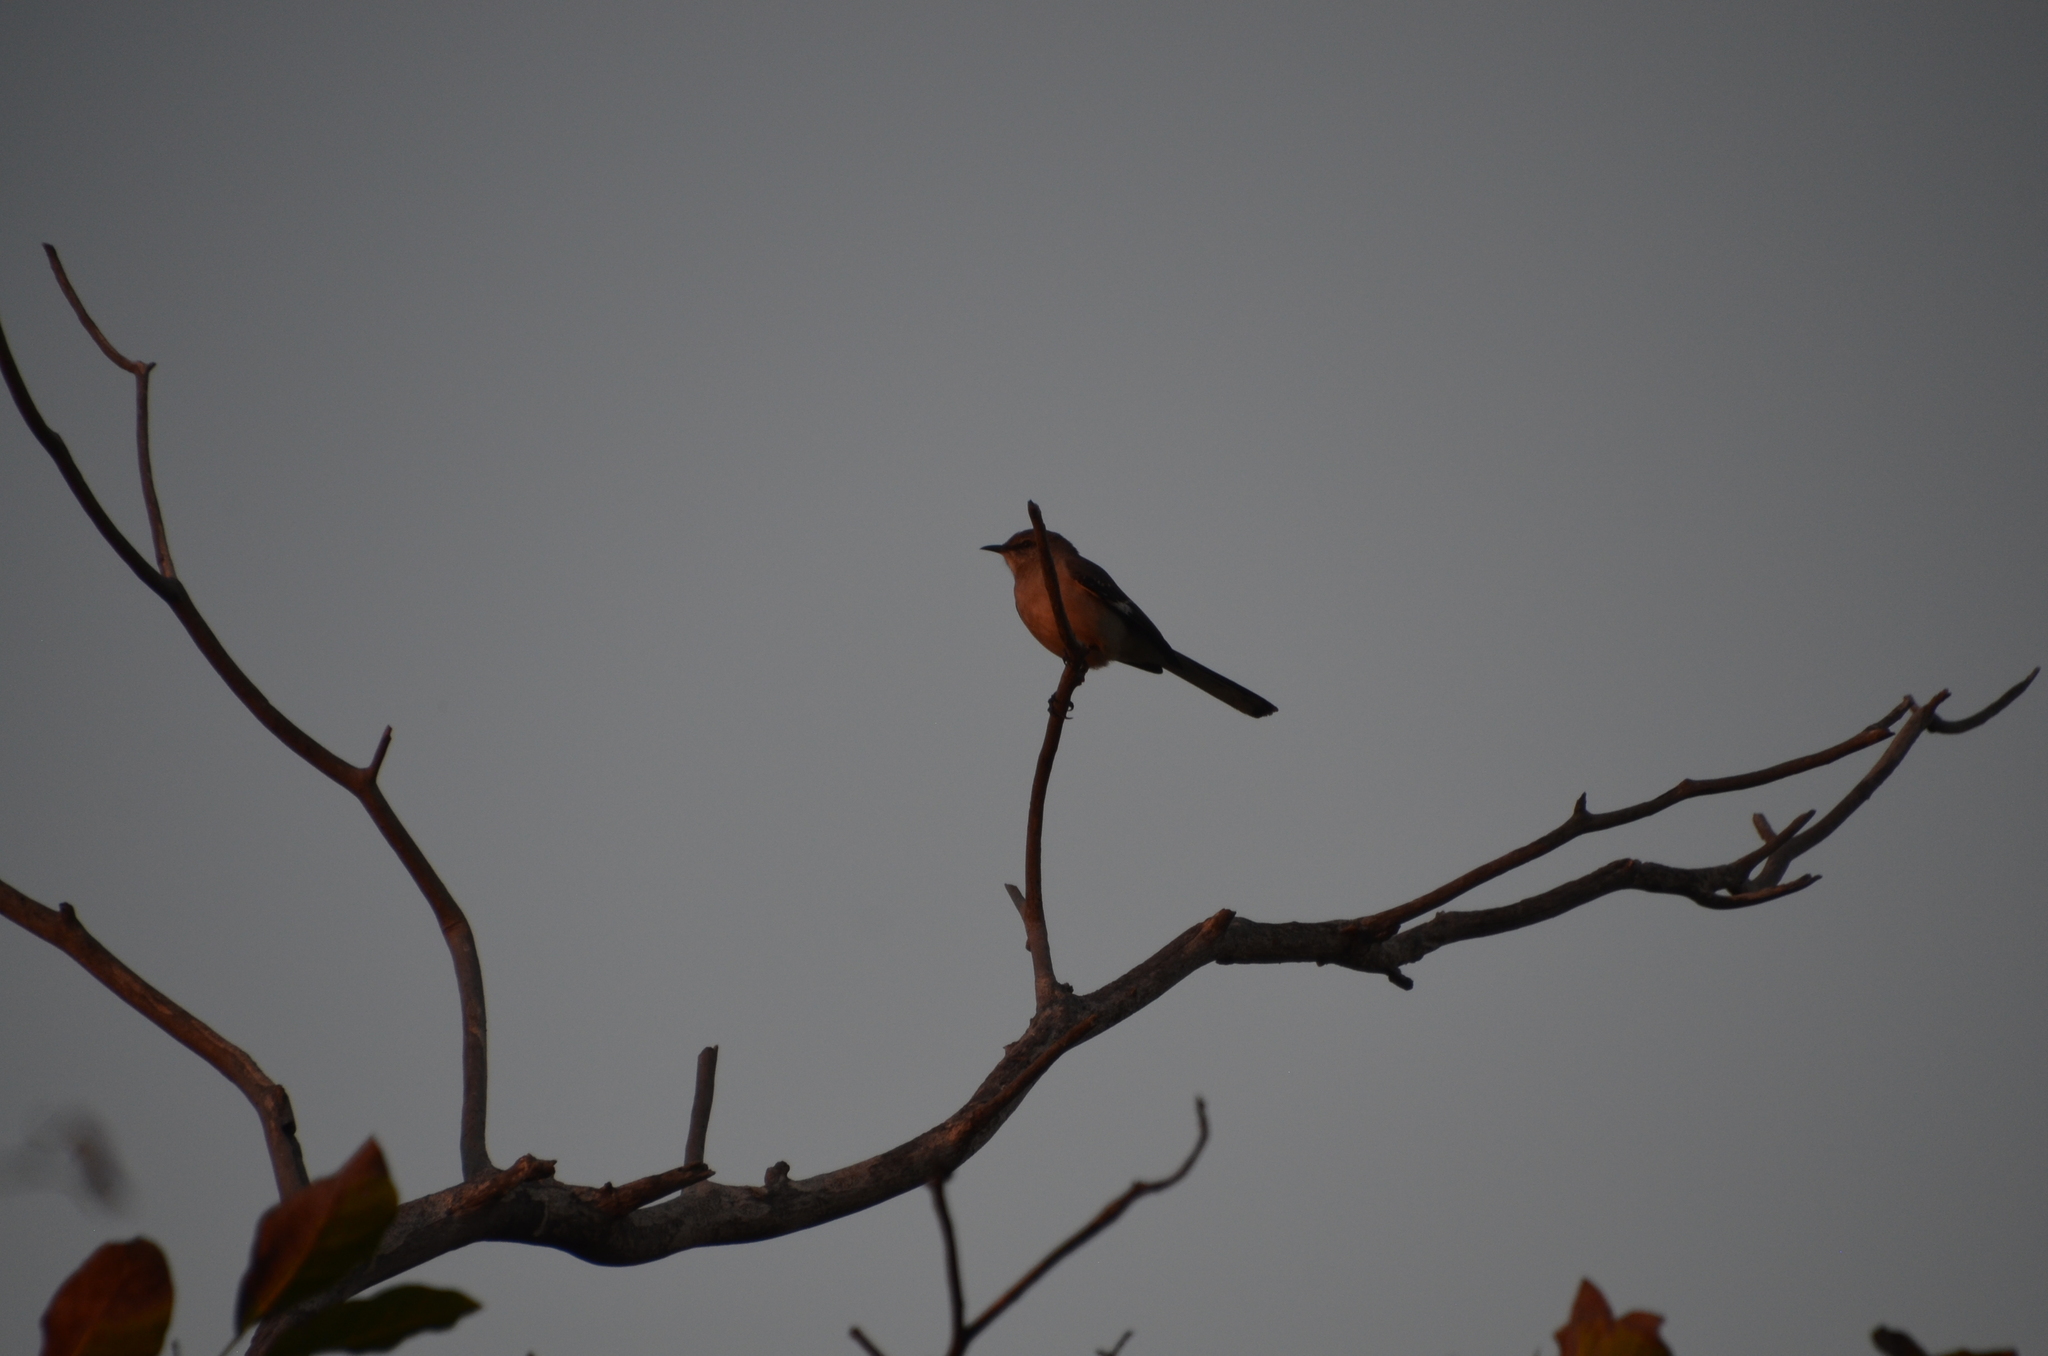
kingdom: Animalia
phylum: Chordata
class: Aves
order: Passeriformes
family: Mimidae
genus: Mimus
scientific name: Mimus polyglottos
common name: Northern mockingbird
